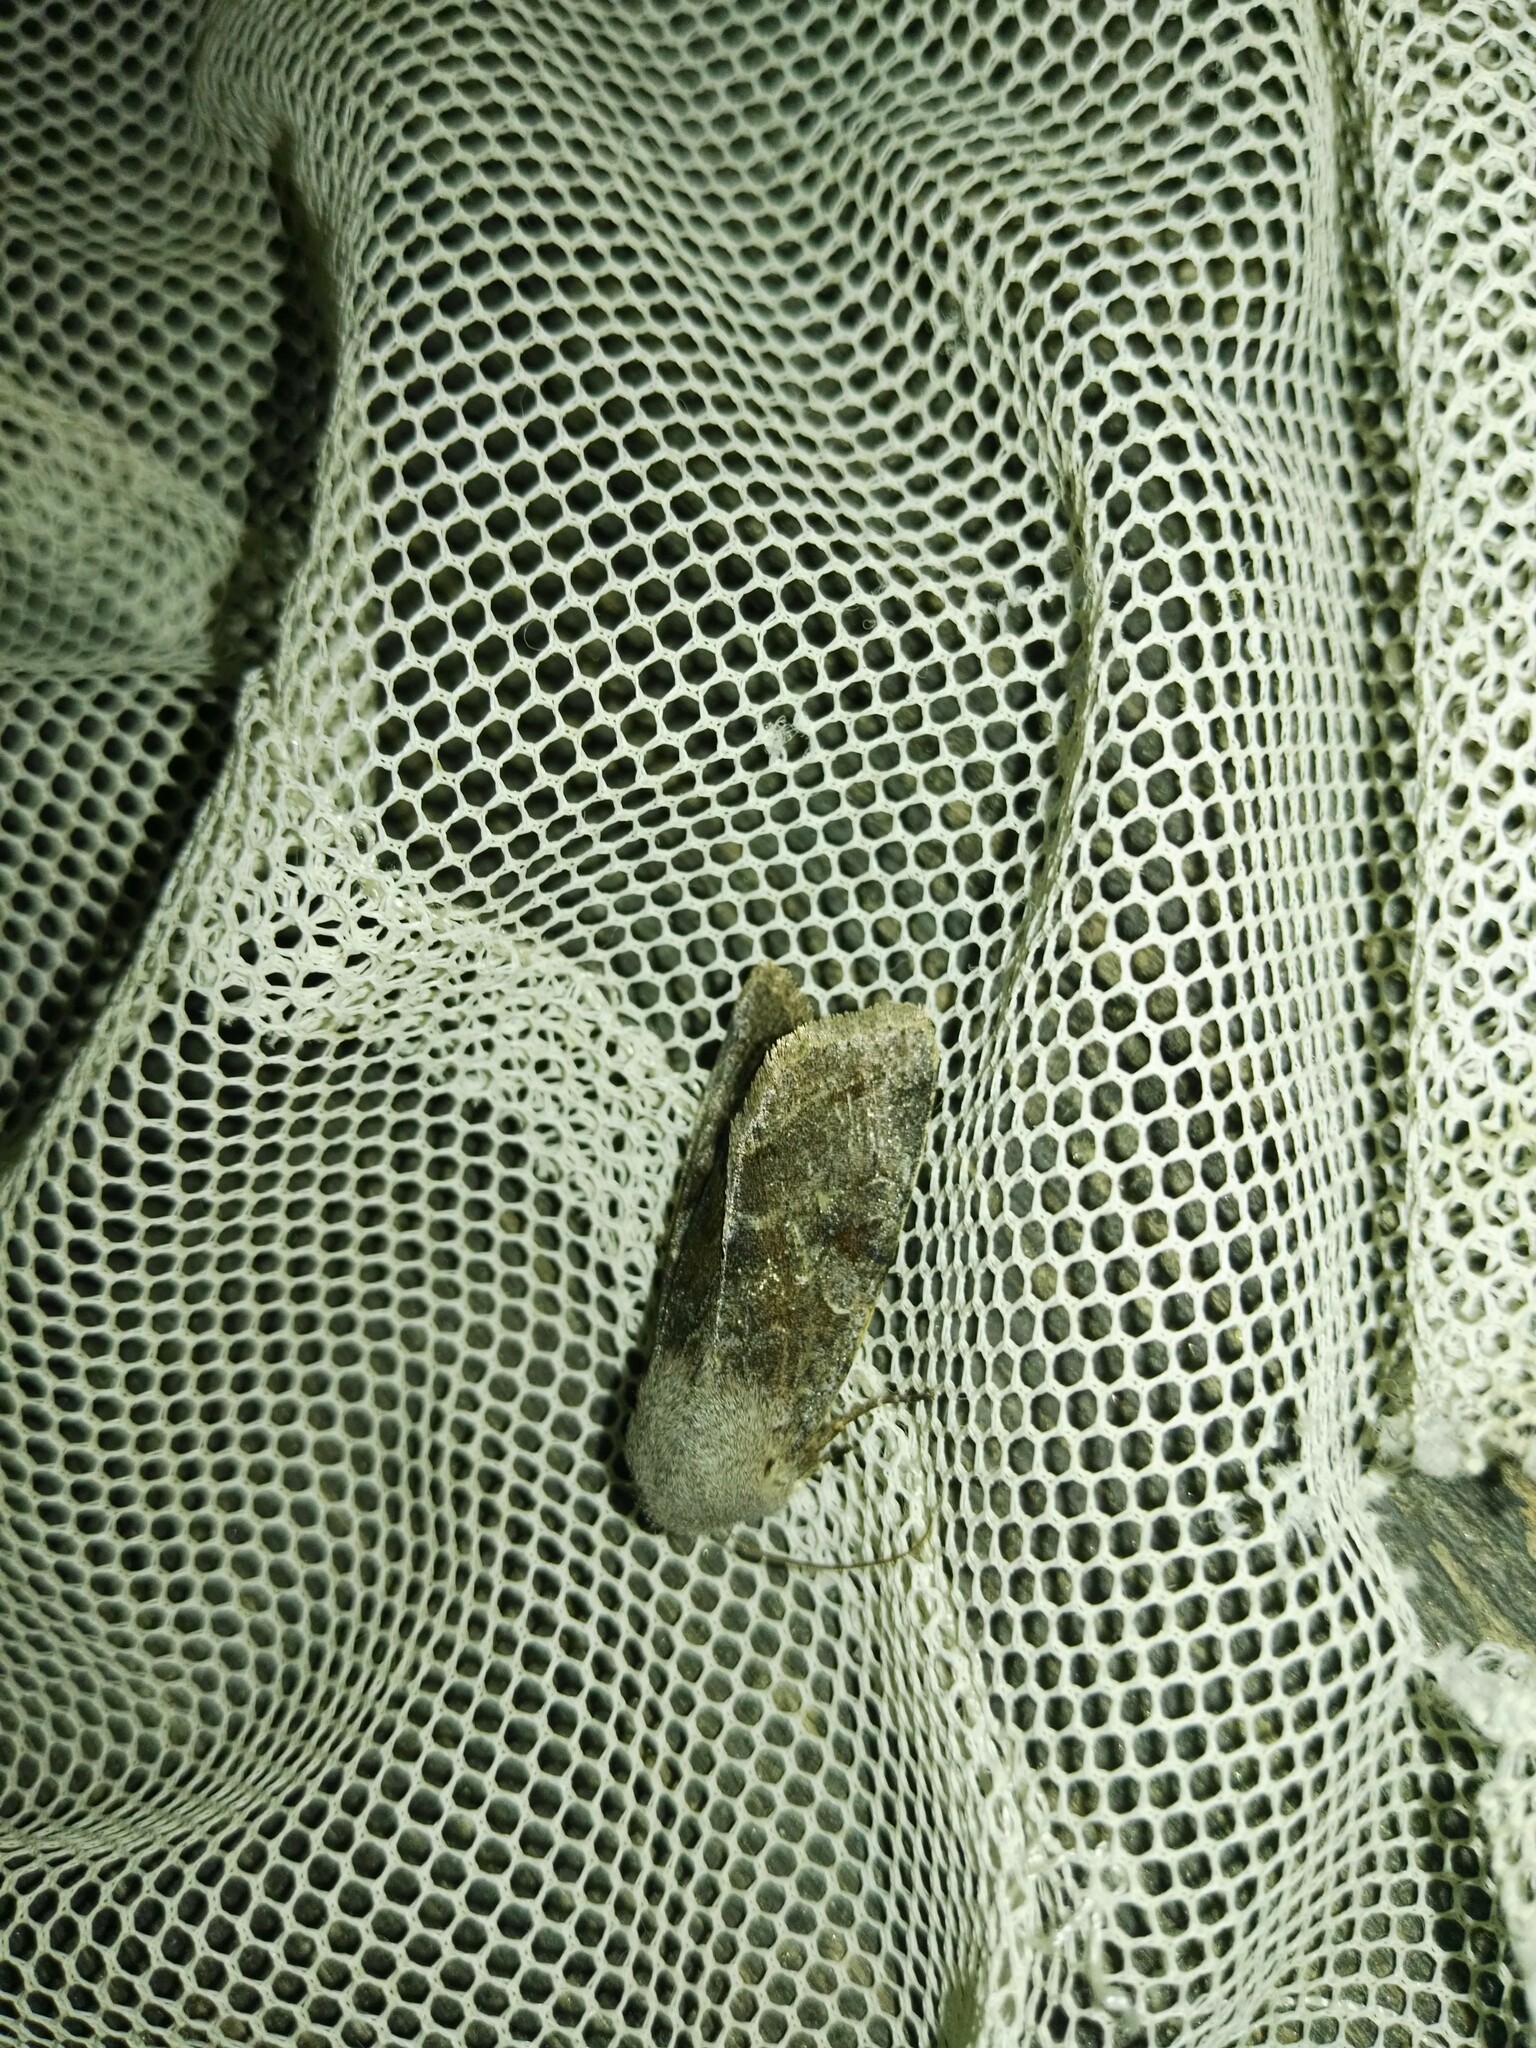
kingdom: Animalia
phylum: Arthropoda
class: Insecta
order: Lepidoptera
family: Noctuidae
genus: Orthosia
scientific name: Orthosia incerta
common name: Clouded drab
